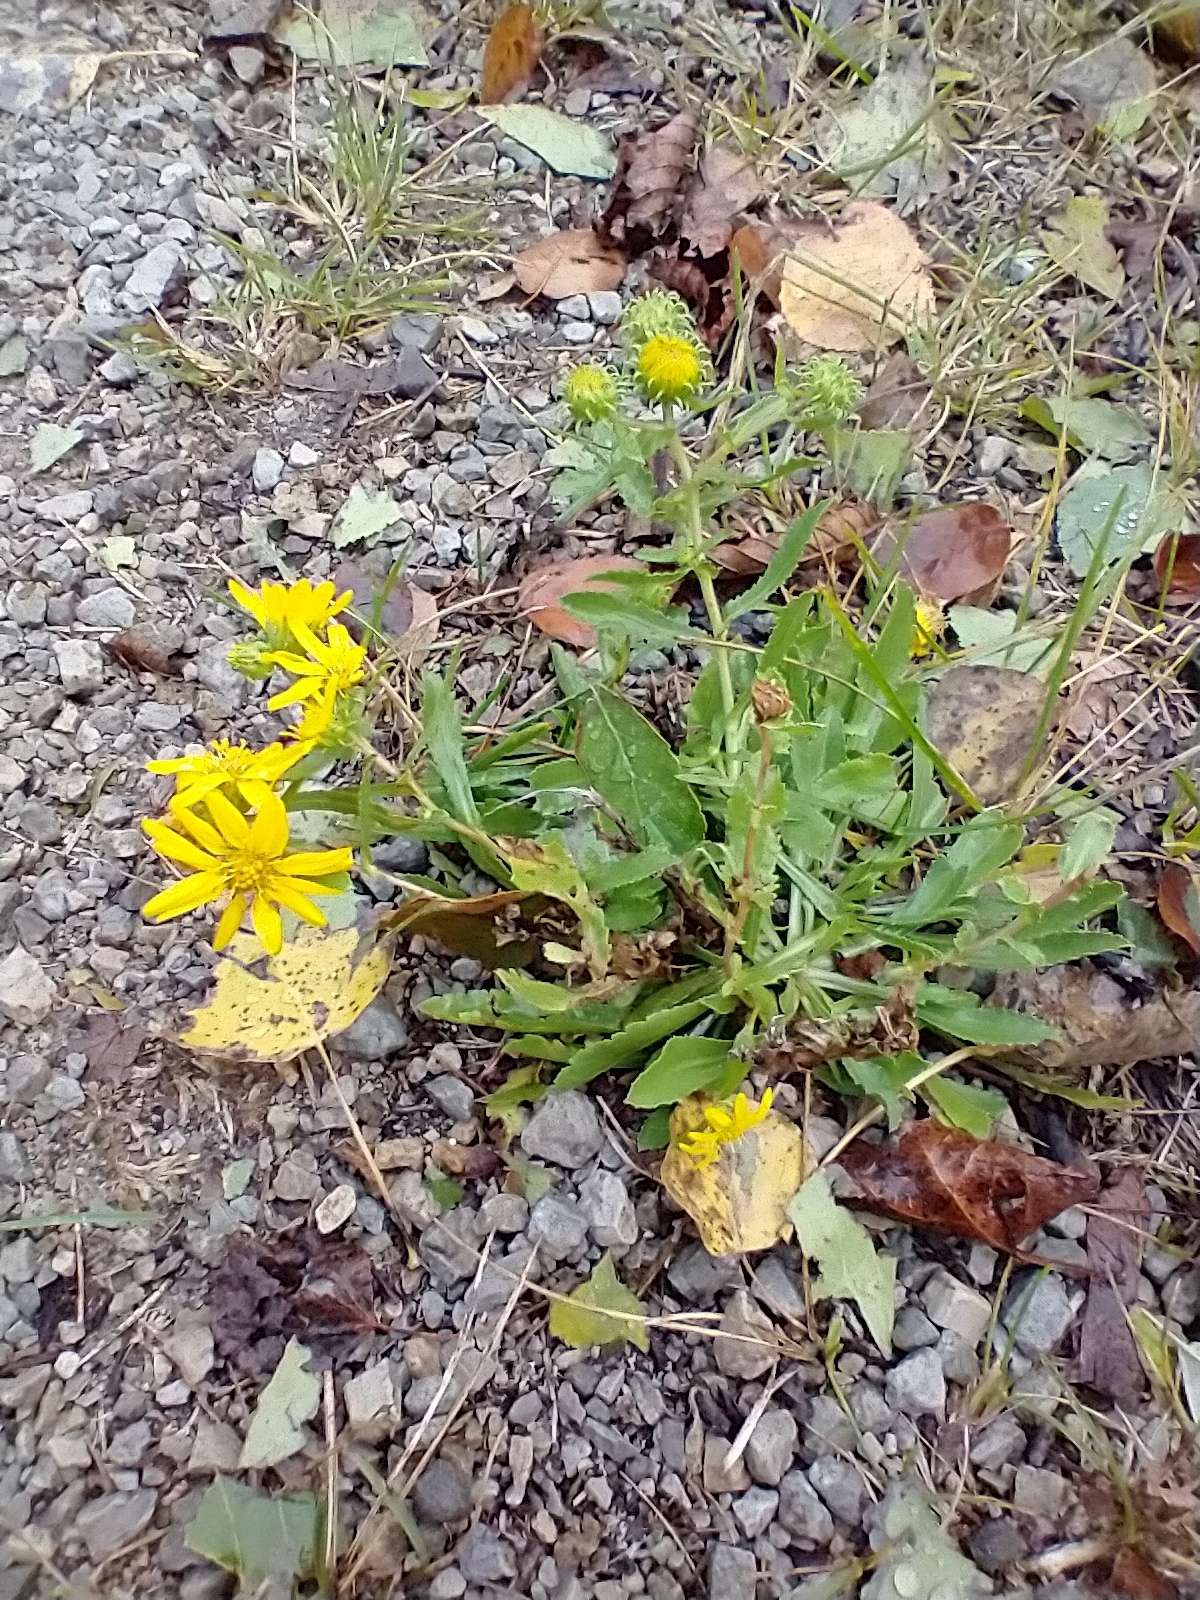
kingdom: Plantae
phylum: Tracheophyta
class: Magnoliopsida
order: Asterales
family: Asteraceae
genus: Grindelia
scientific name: Grindelia squarrosa
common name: Curly-cup gumweed
